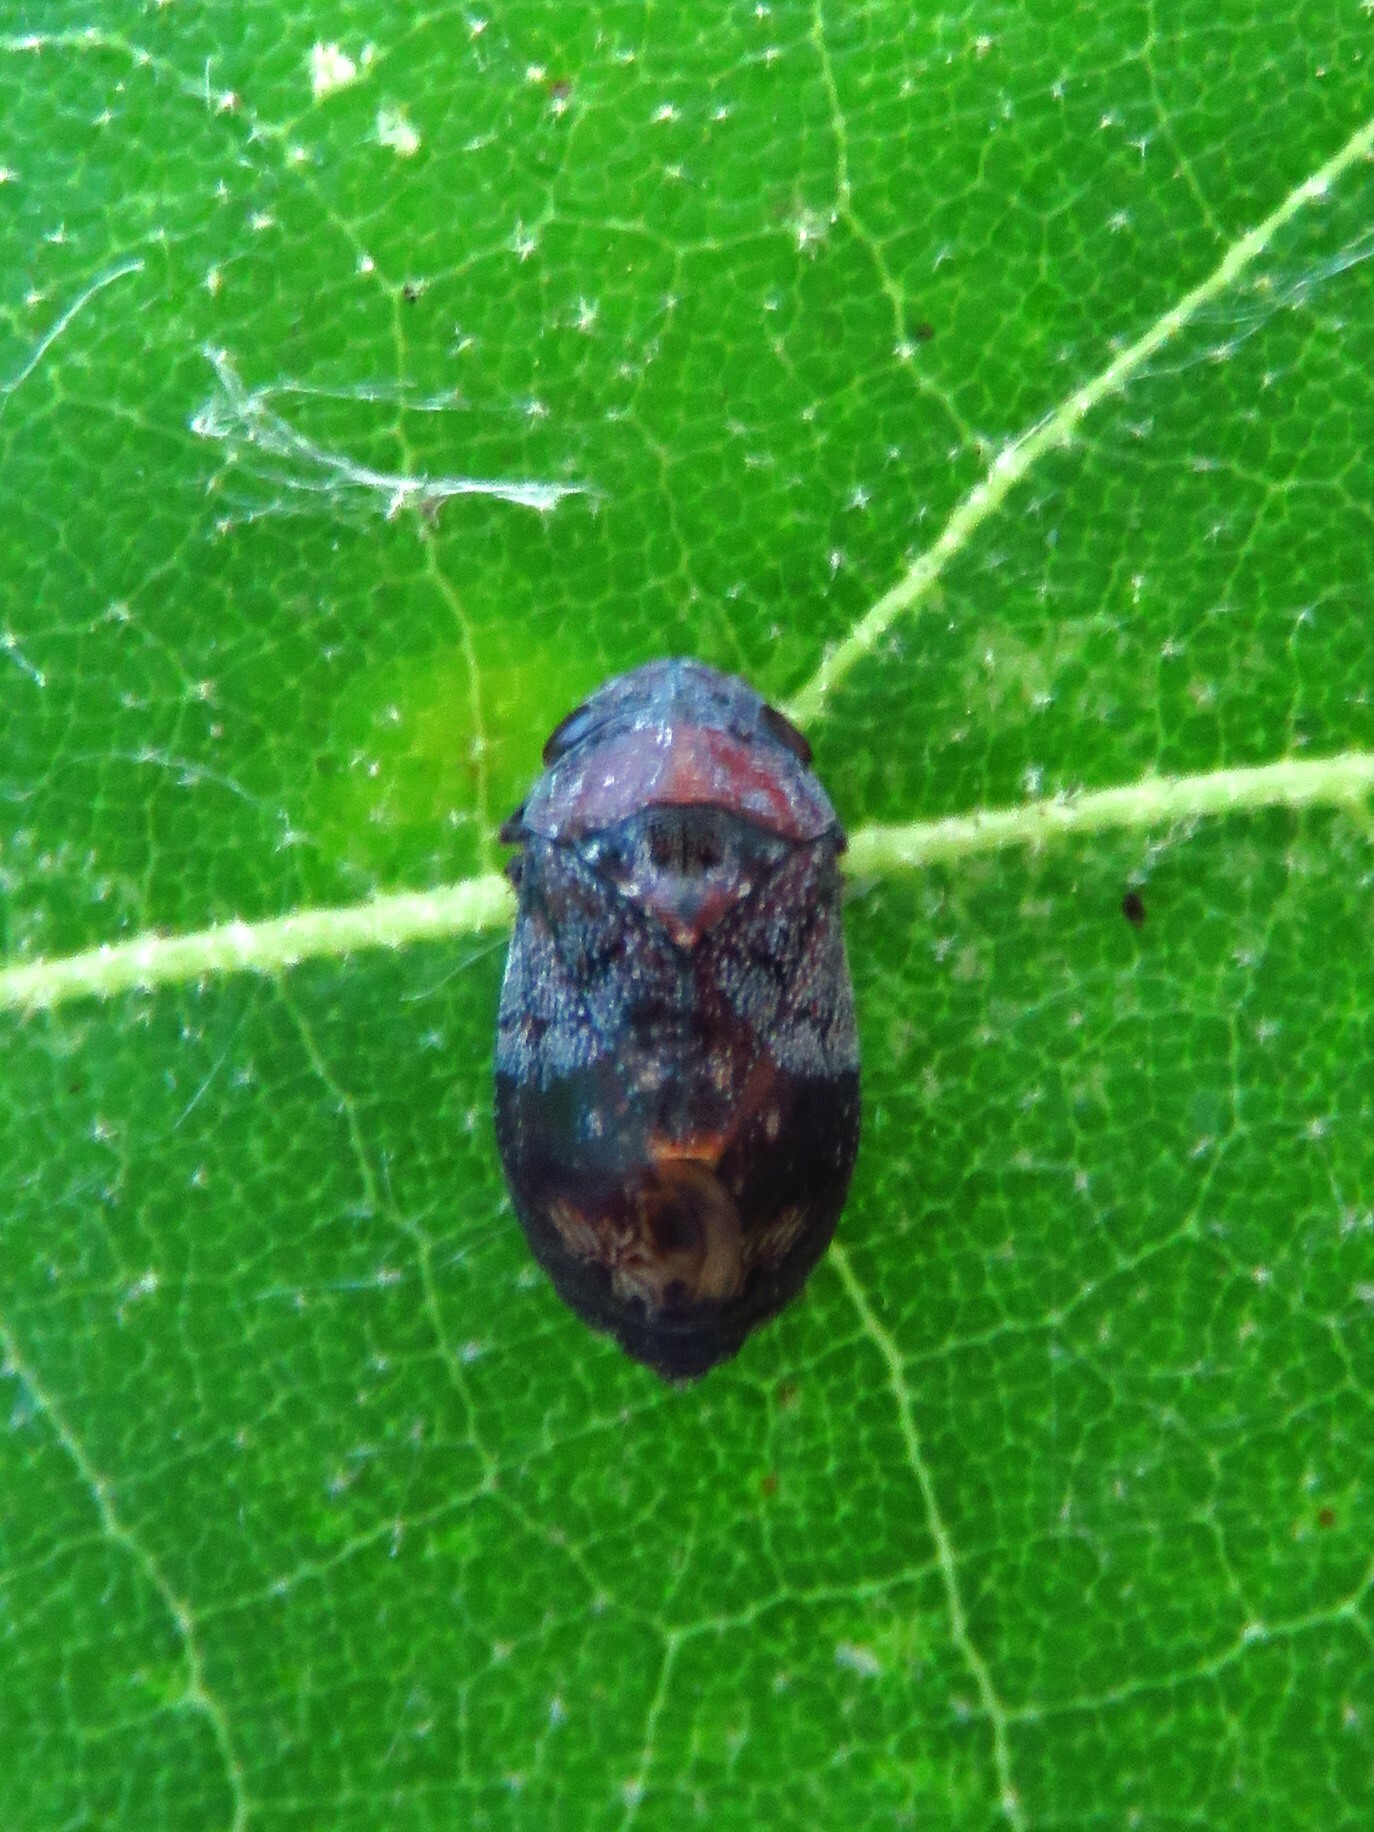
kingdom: Animalia
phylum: Arthropoda
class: Insecta
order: Hemiptera
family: Cicadellidae
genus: Penthimia
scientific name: Penthimia americana
